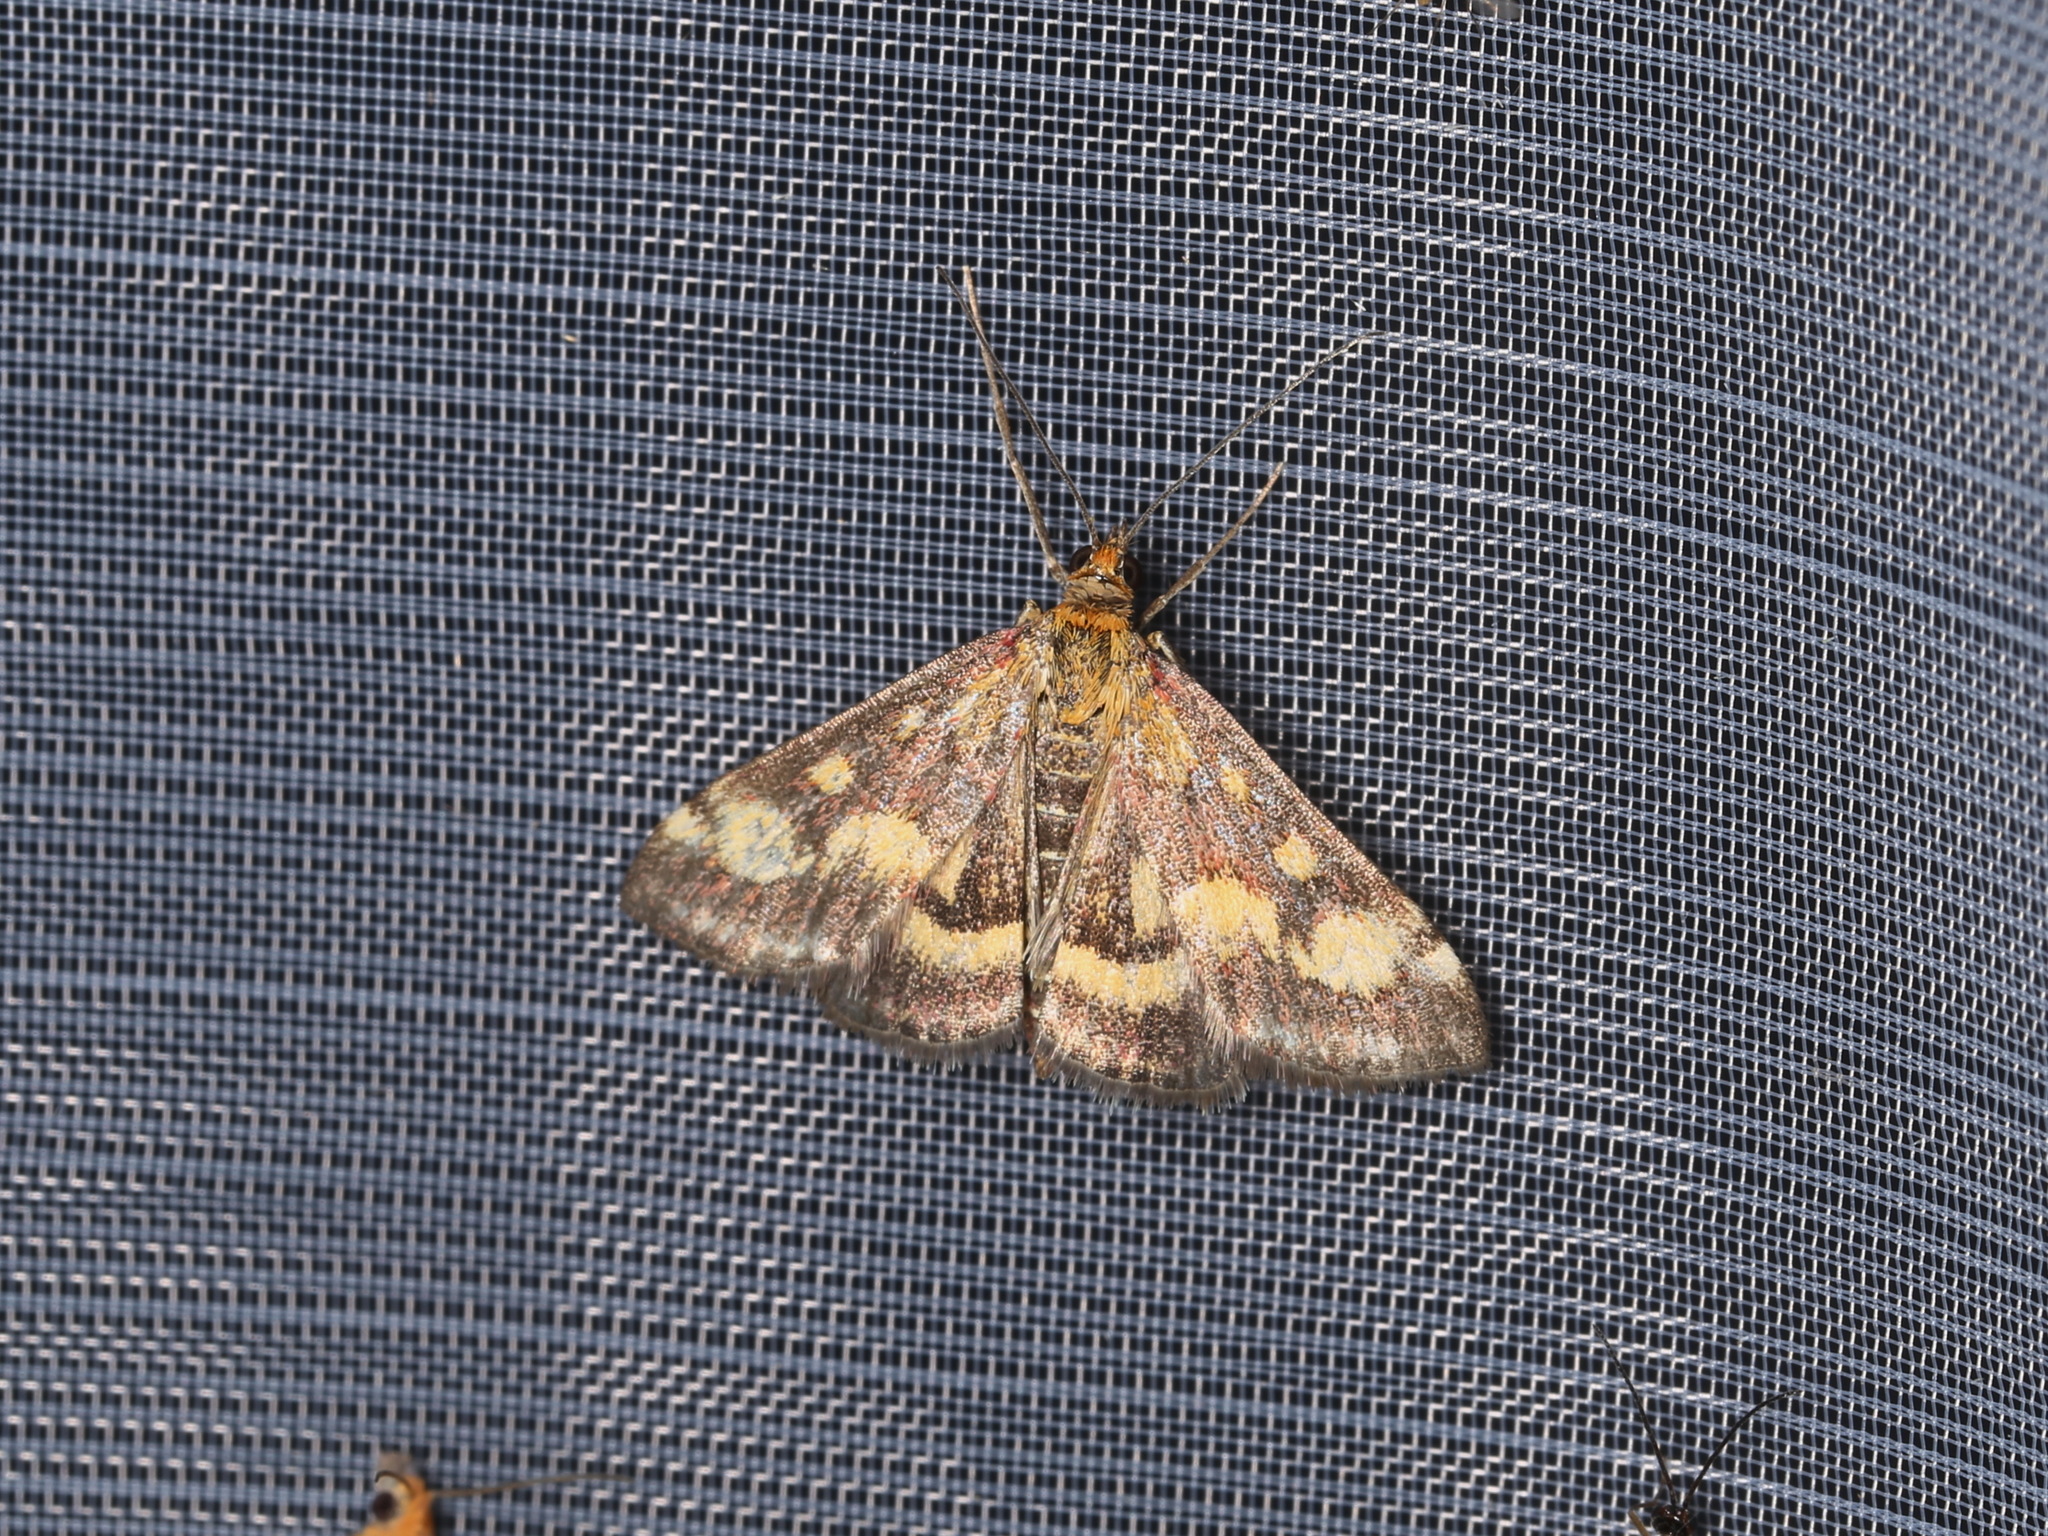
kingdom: Animalia
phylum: Arthropoda
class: Insecta
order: Lepidoptera
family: Crambidae
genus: Pyrausta
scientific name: Pyrausta purpuralis
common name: Common purple & gold
